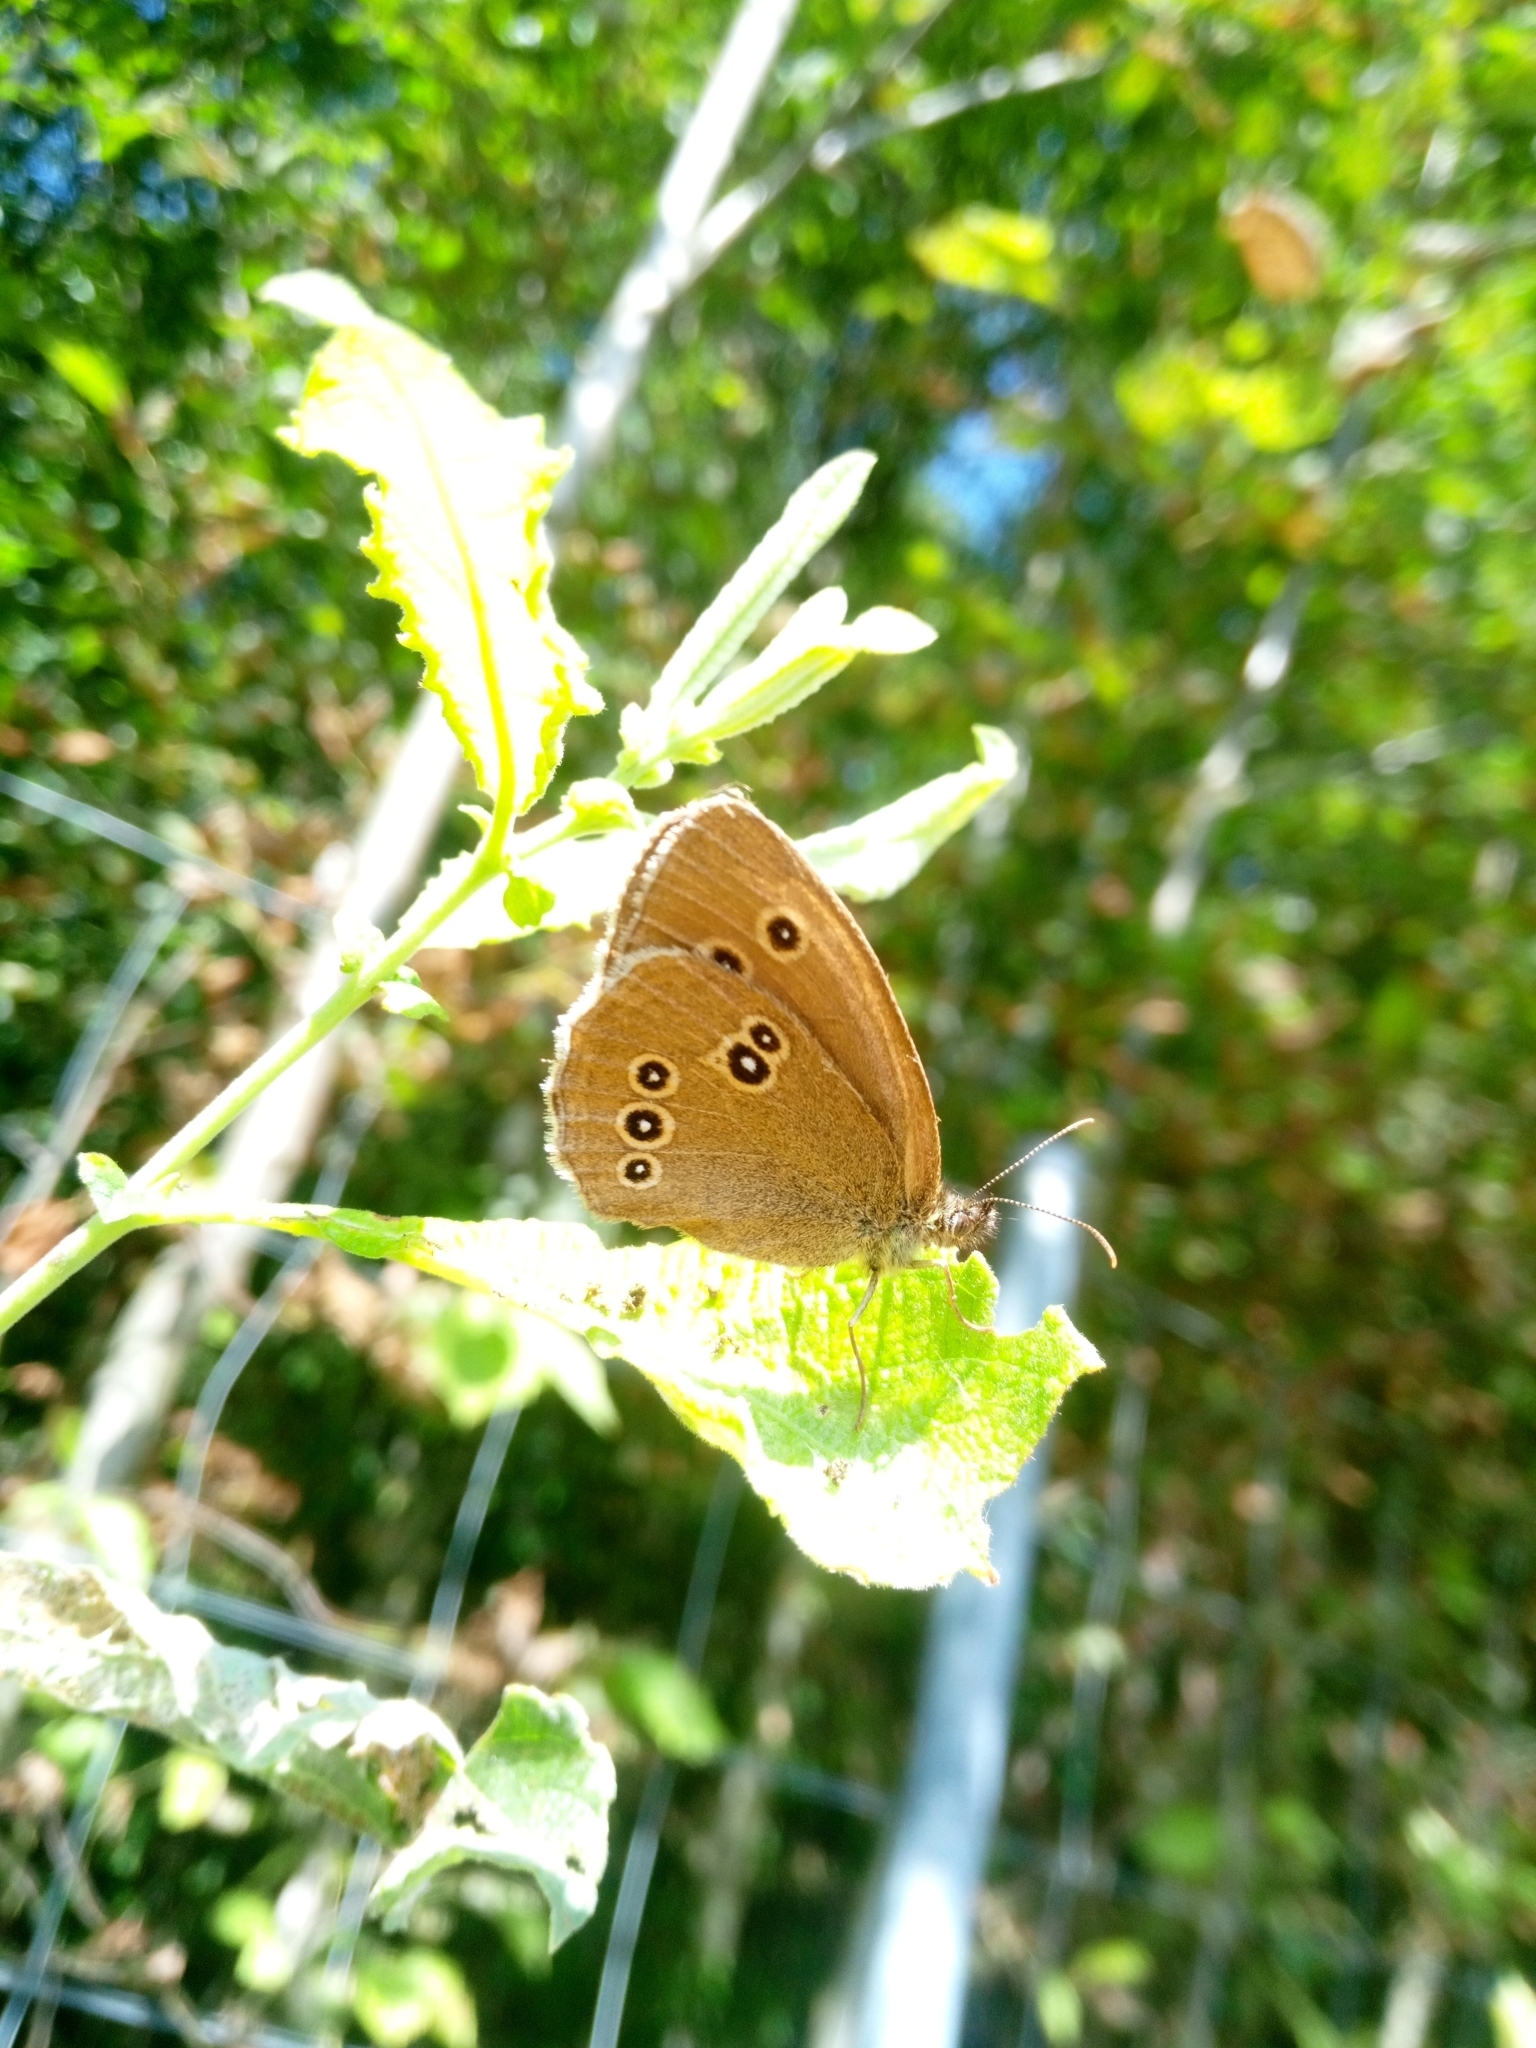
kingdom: Animalia
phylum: Arthropoda
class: Insecta
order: Lepidoptera
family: Nymphalidae
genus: Aphantopus
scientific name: Aphantopus hyperantus
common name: Ringlet
